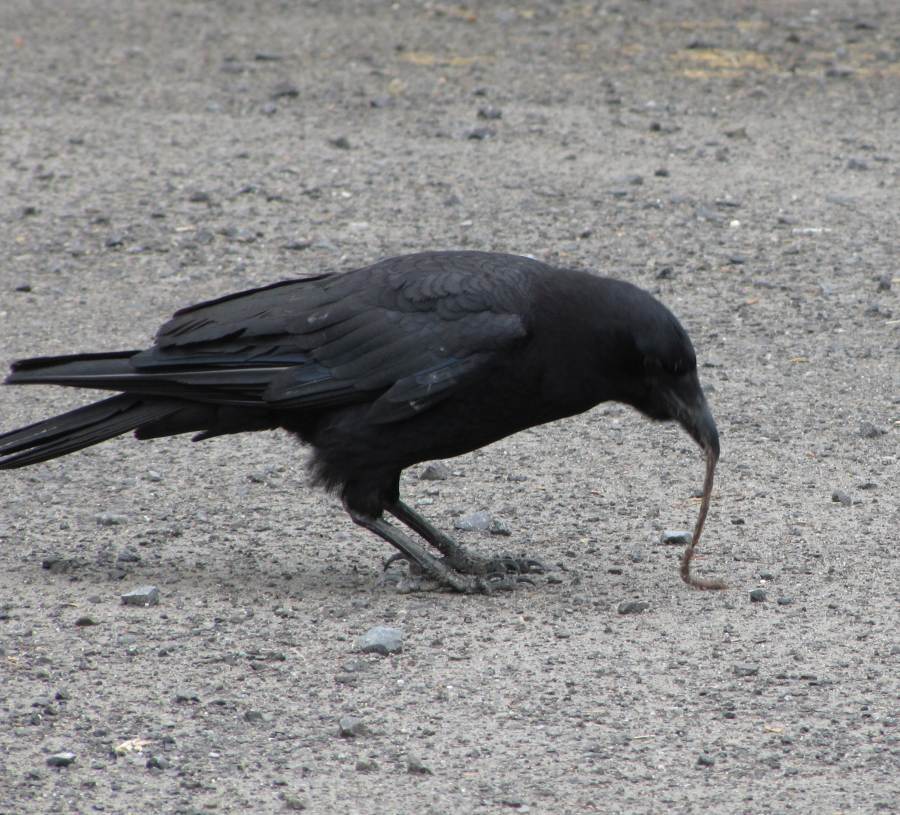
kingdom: Animalia
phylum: Chordata
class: Aves
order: Passeriformes
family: Corvidae
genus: Corvus
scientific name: Corvus brachyrhynchos
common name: American crow
